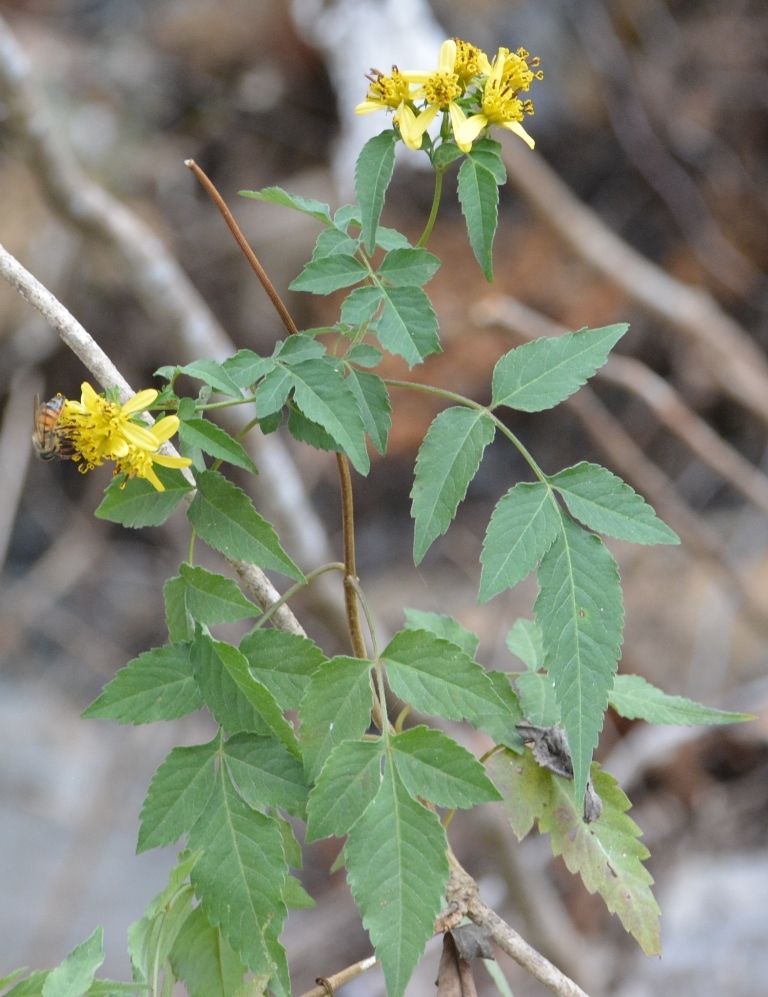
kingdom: Plantae
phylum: Tracheophyta
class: Magnoliopsida
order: Asterales
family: Asteraceae
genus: Bidens
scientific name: Bidens reptans
